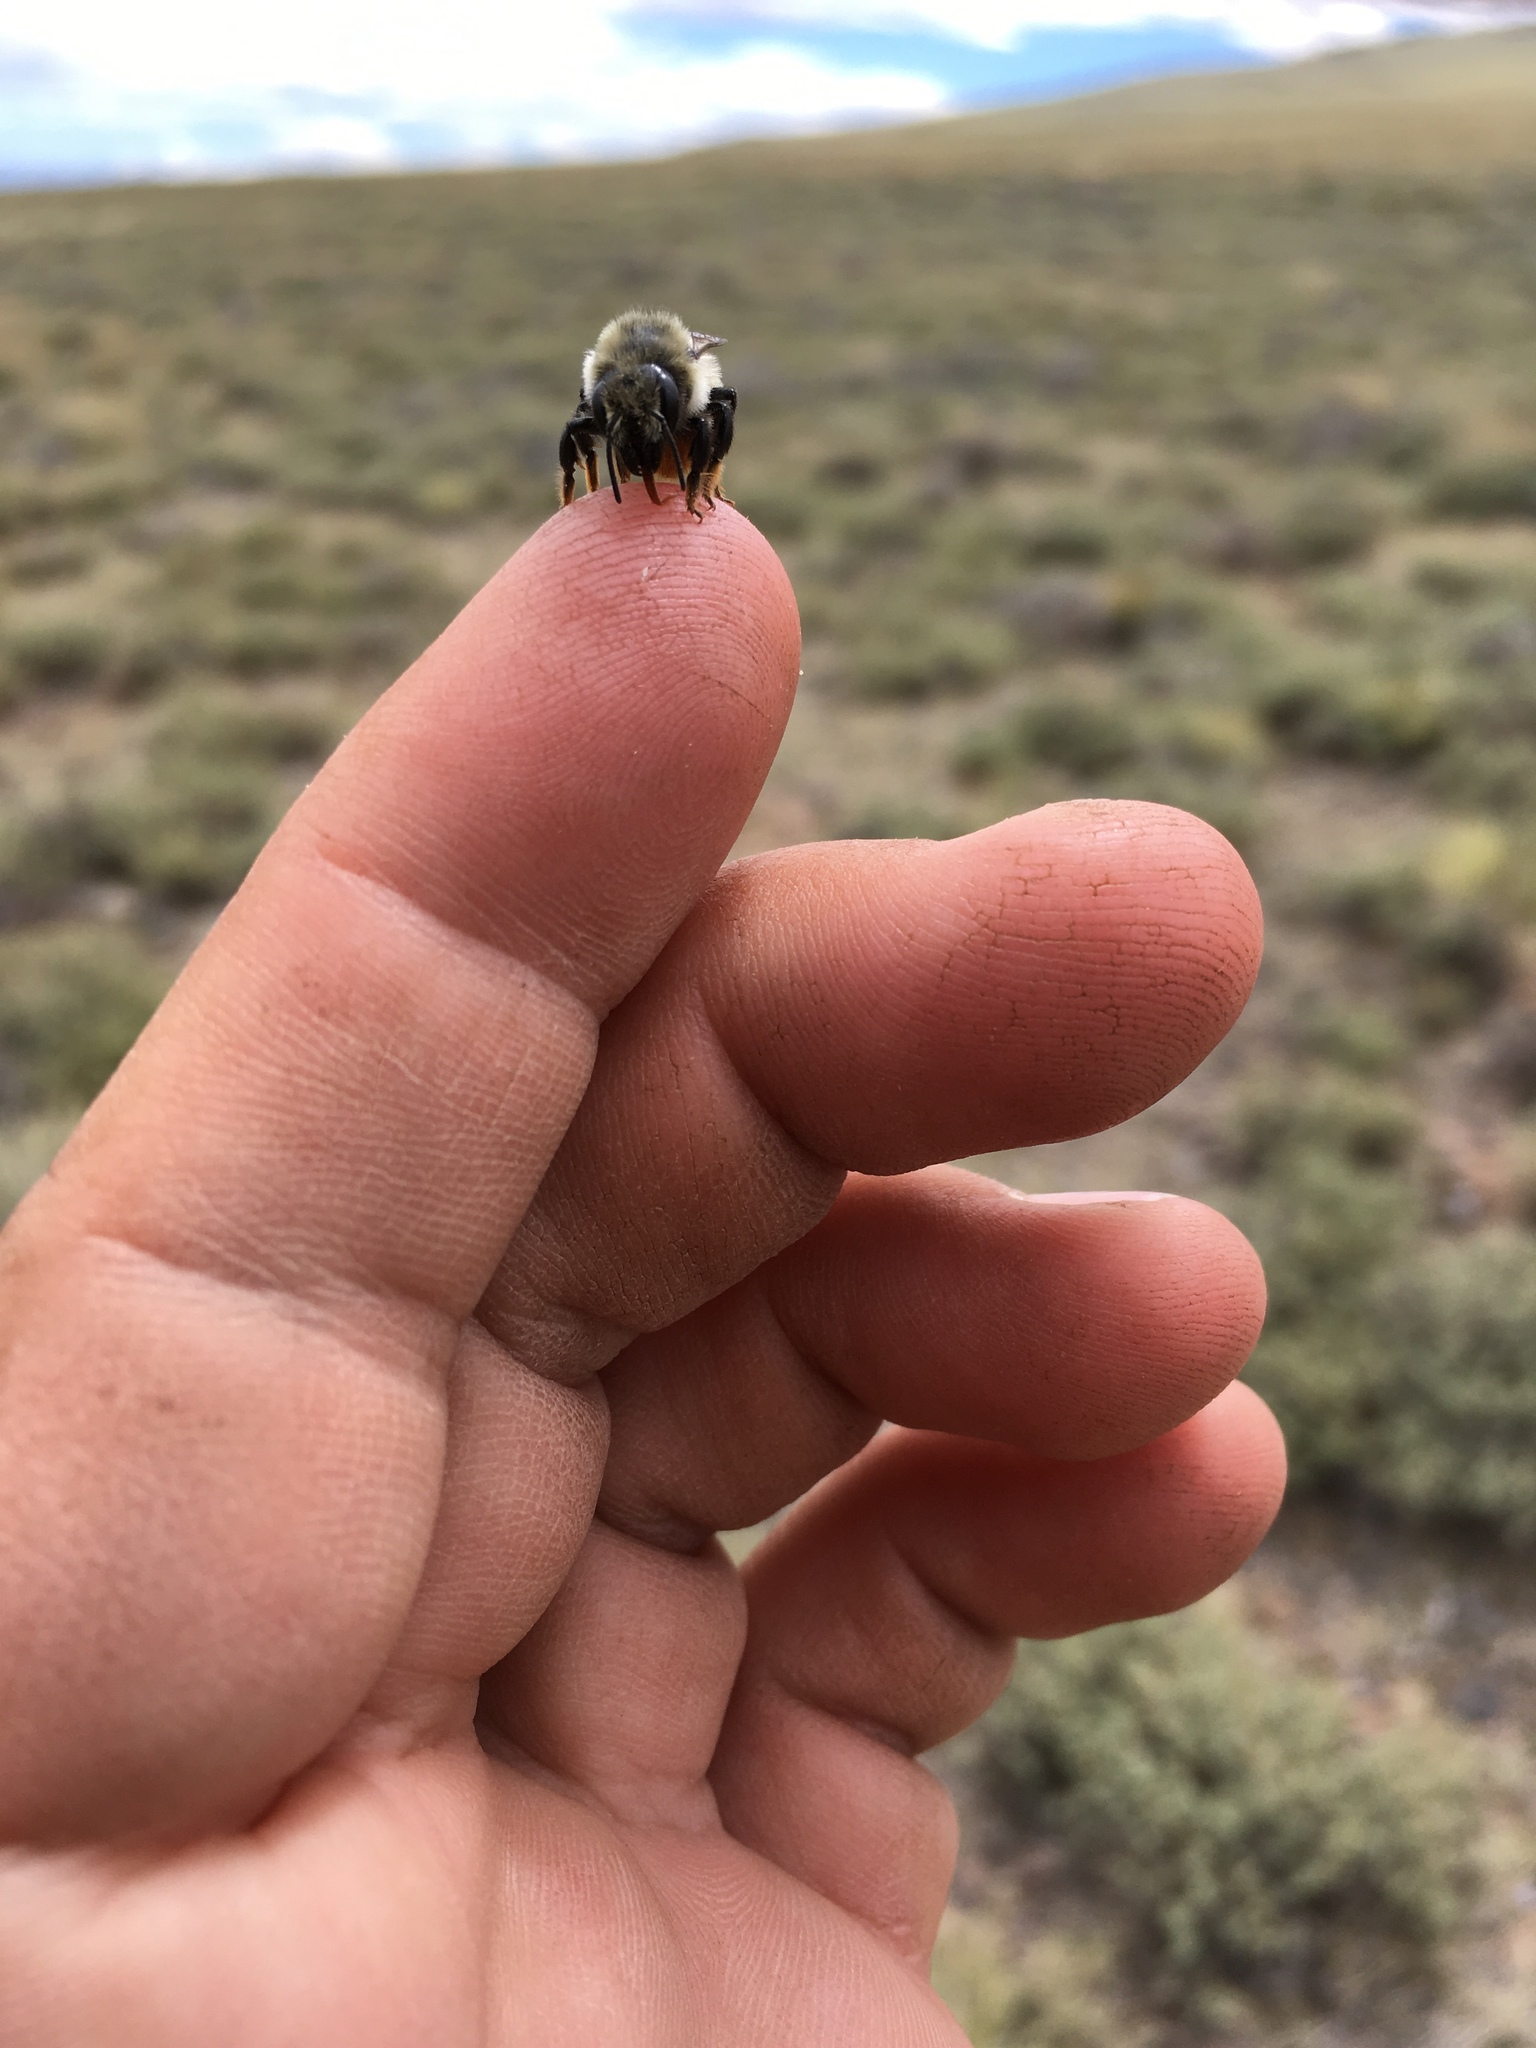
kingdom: Animalia
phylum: Arthropoda
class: Insecta
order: Hymenoptera
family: Megachilidae
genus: Megachile
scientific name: Megachile melanophaea
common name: Black-and-gray leafcutter bee
